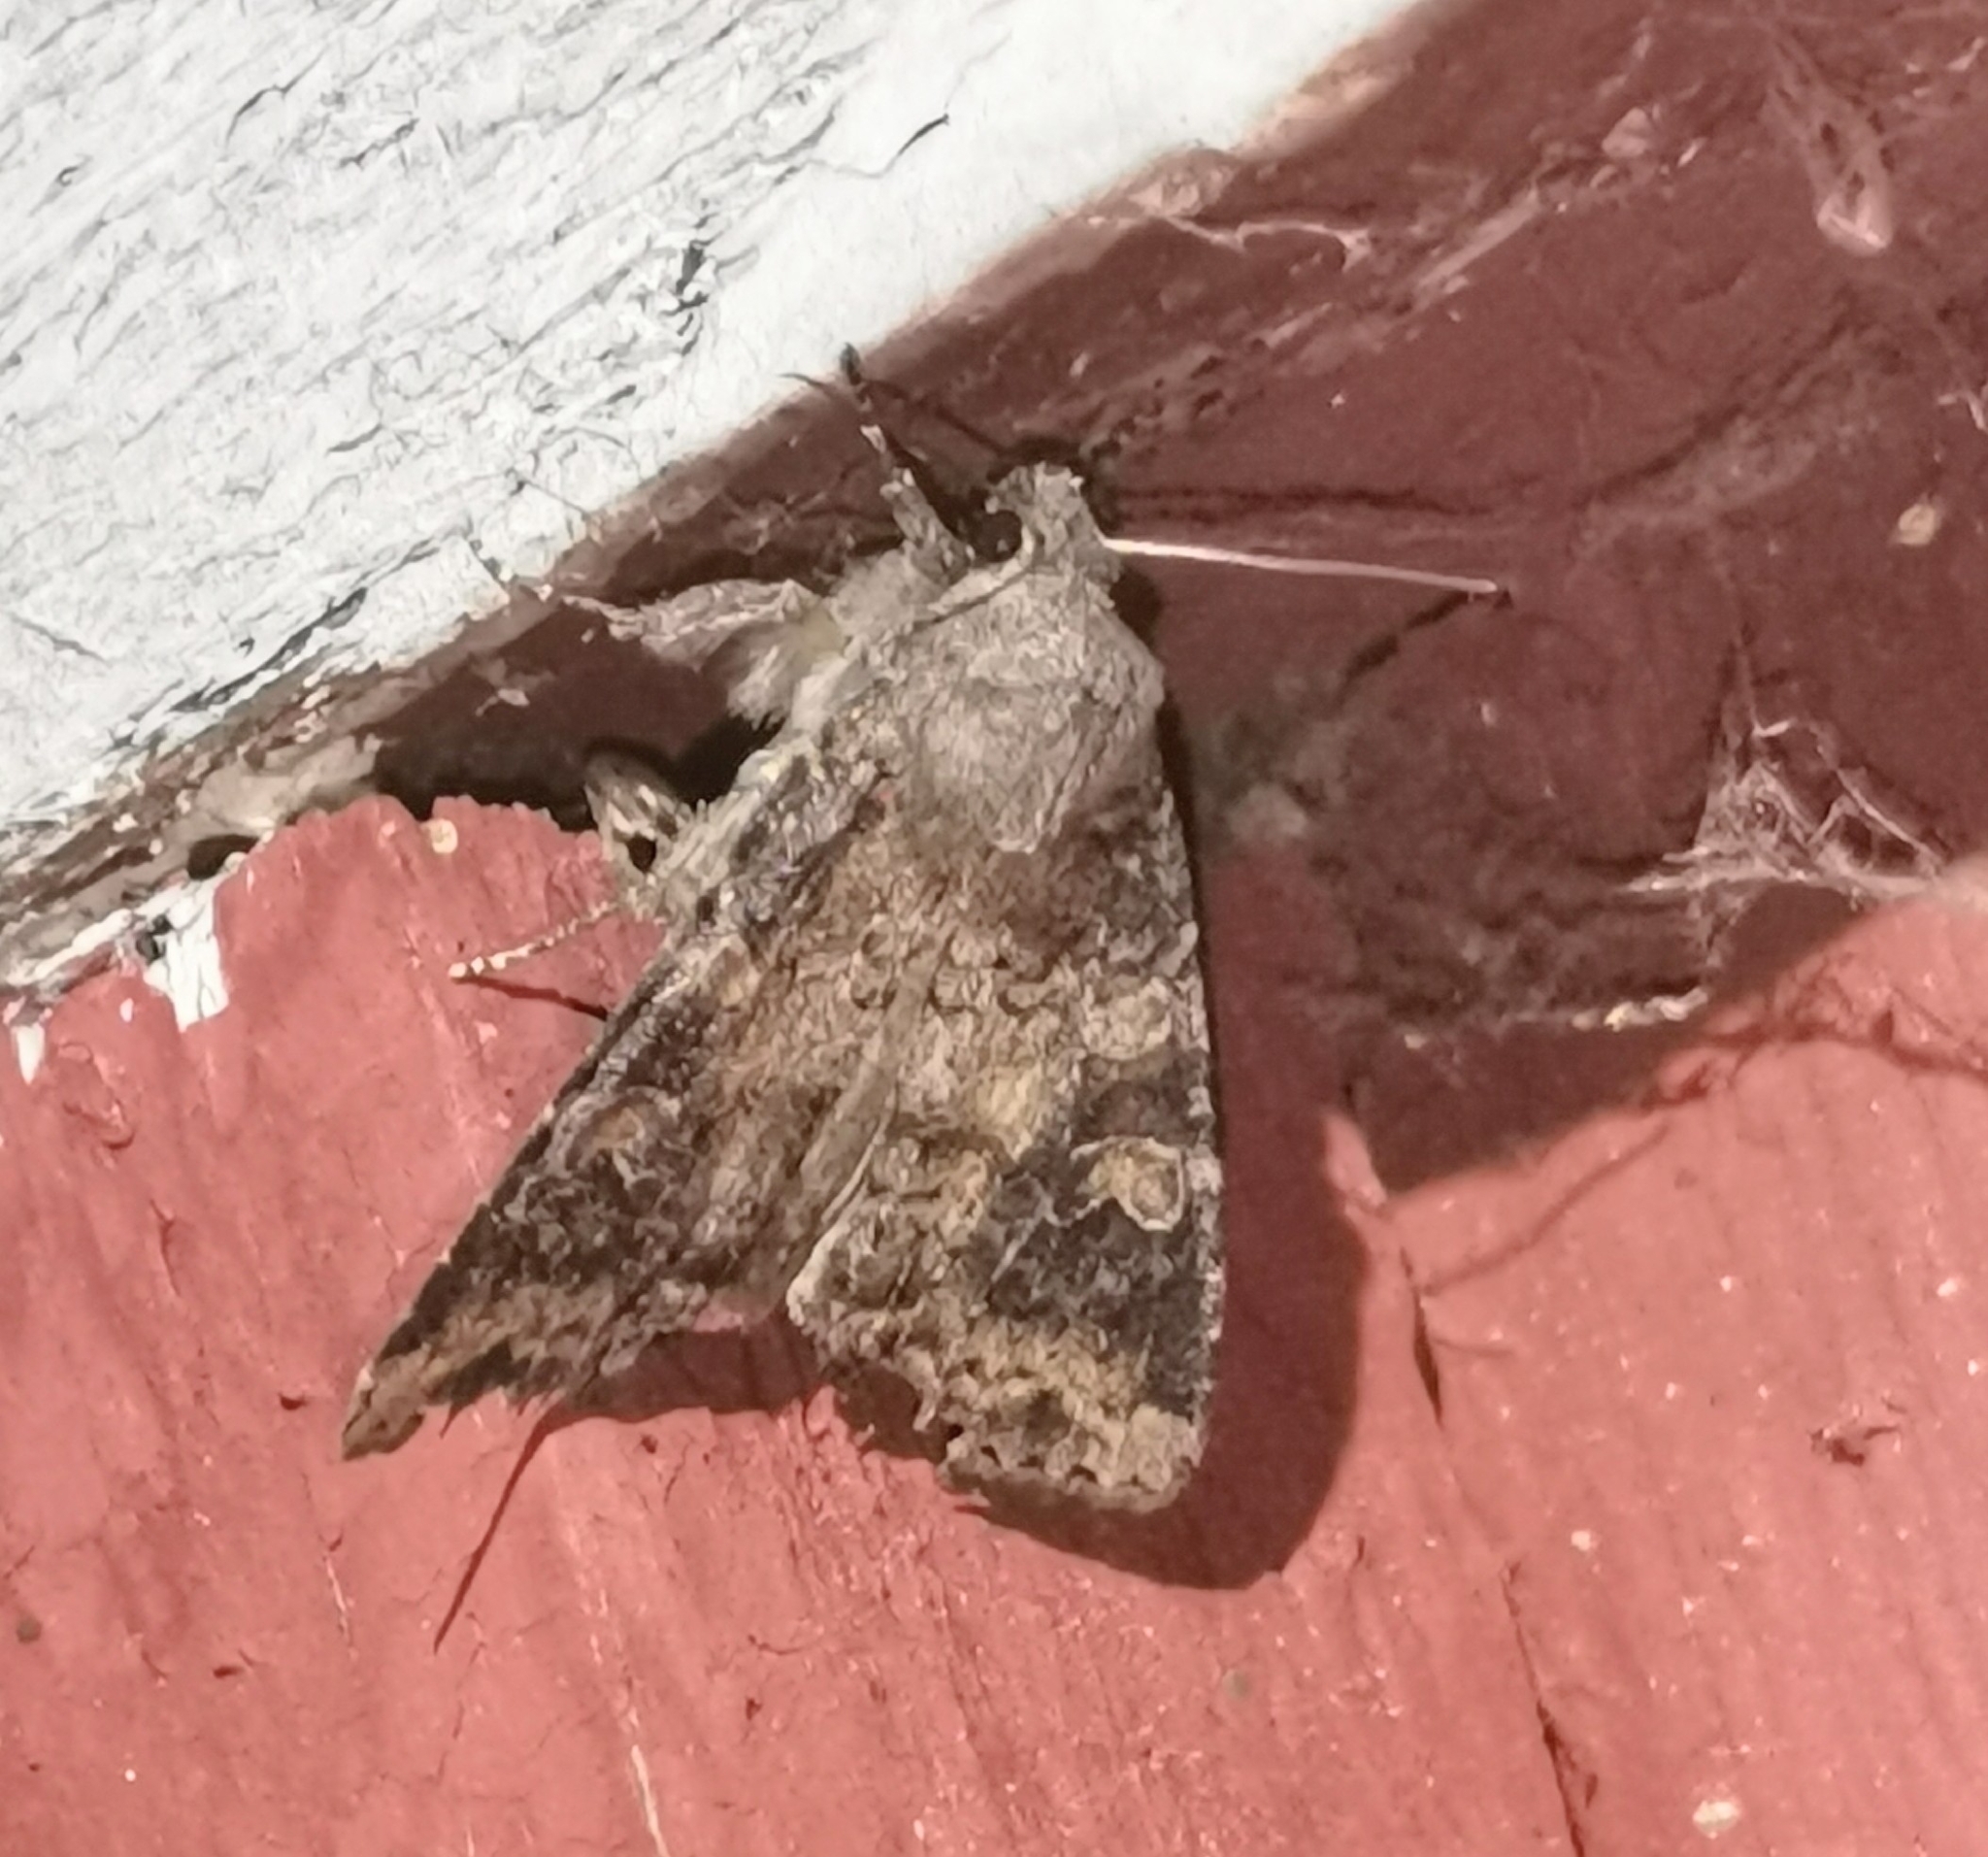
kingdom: Animalia
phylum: Arthropoda
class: Insecta
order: Lepidoptera
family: Noctuidae
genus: Parastichtis
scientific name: Parastichtis suspecta
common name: Suspected
